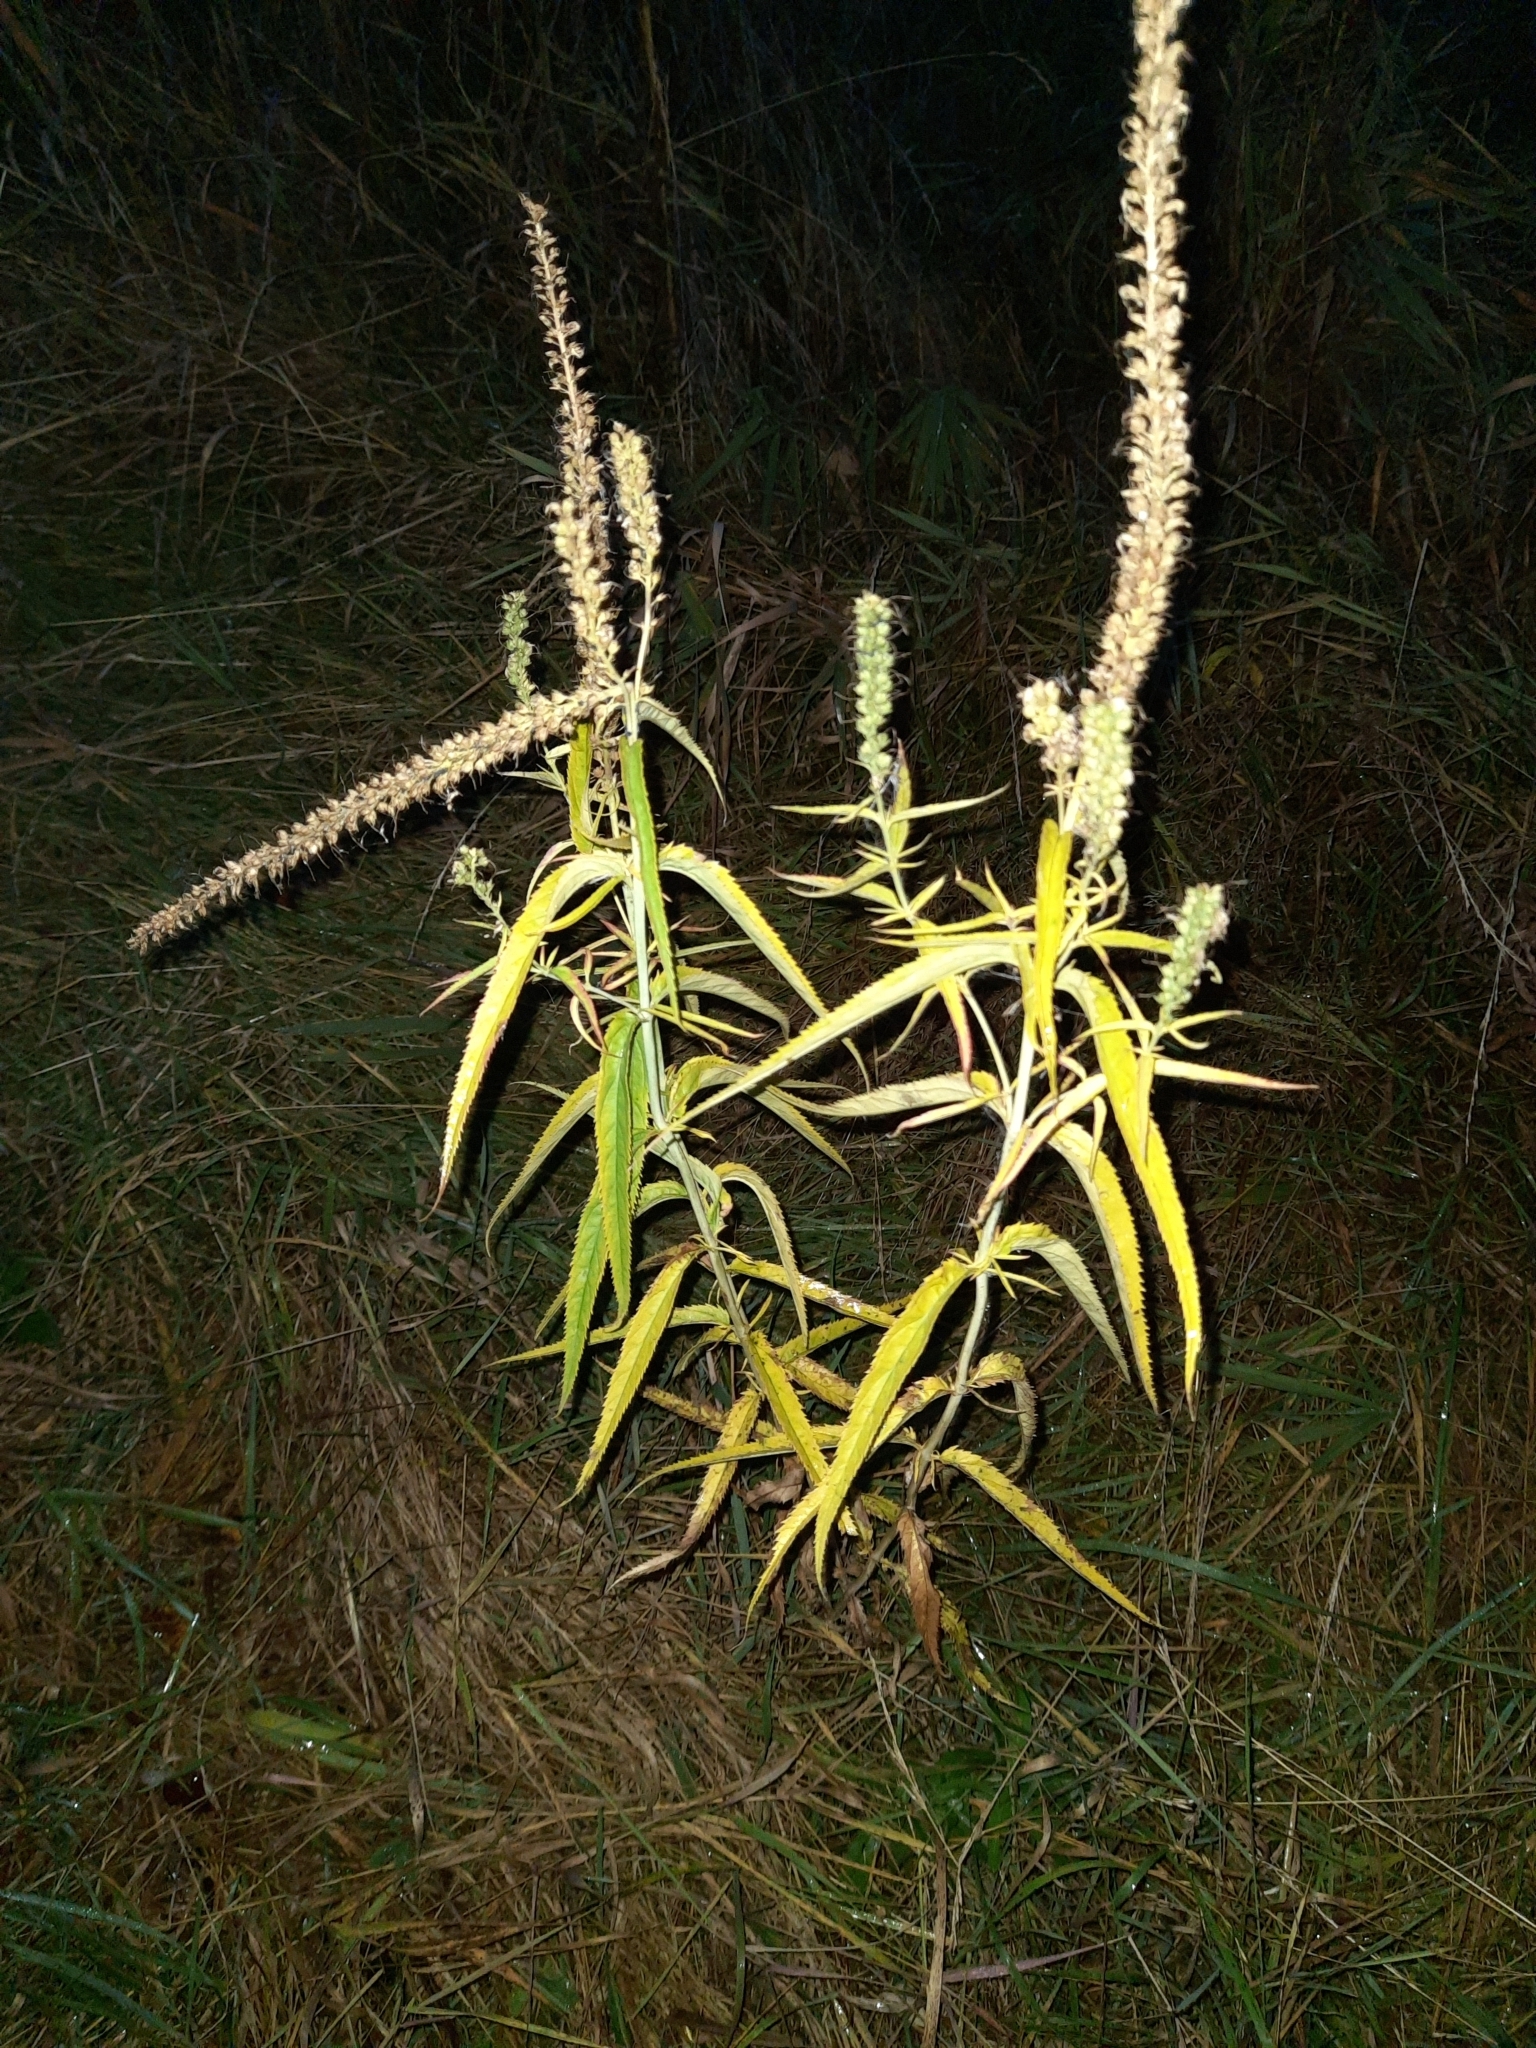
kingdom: Plantae
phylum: Tracheophyta
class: Magnoliopsida
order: Lamiales
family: Plantaginaceae
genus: Veronica
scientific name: Veronica longifolia
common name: Garden speedwell
